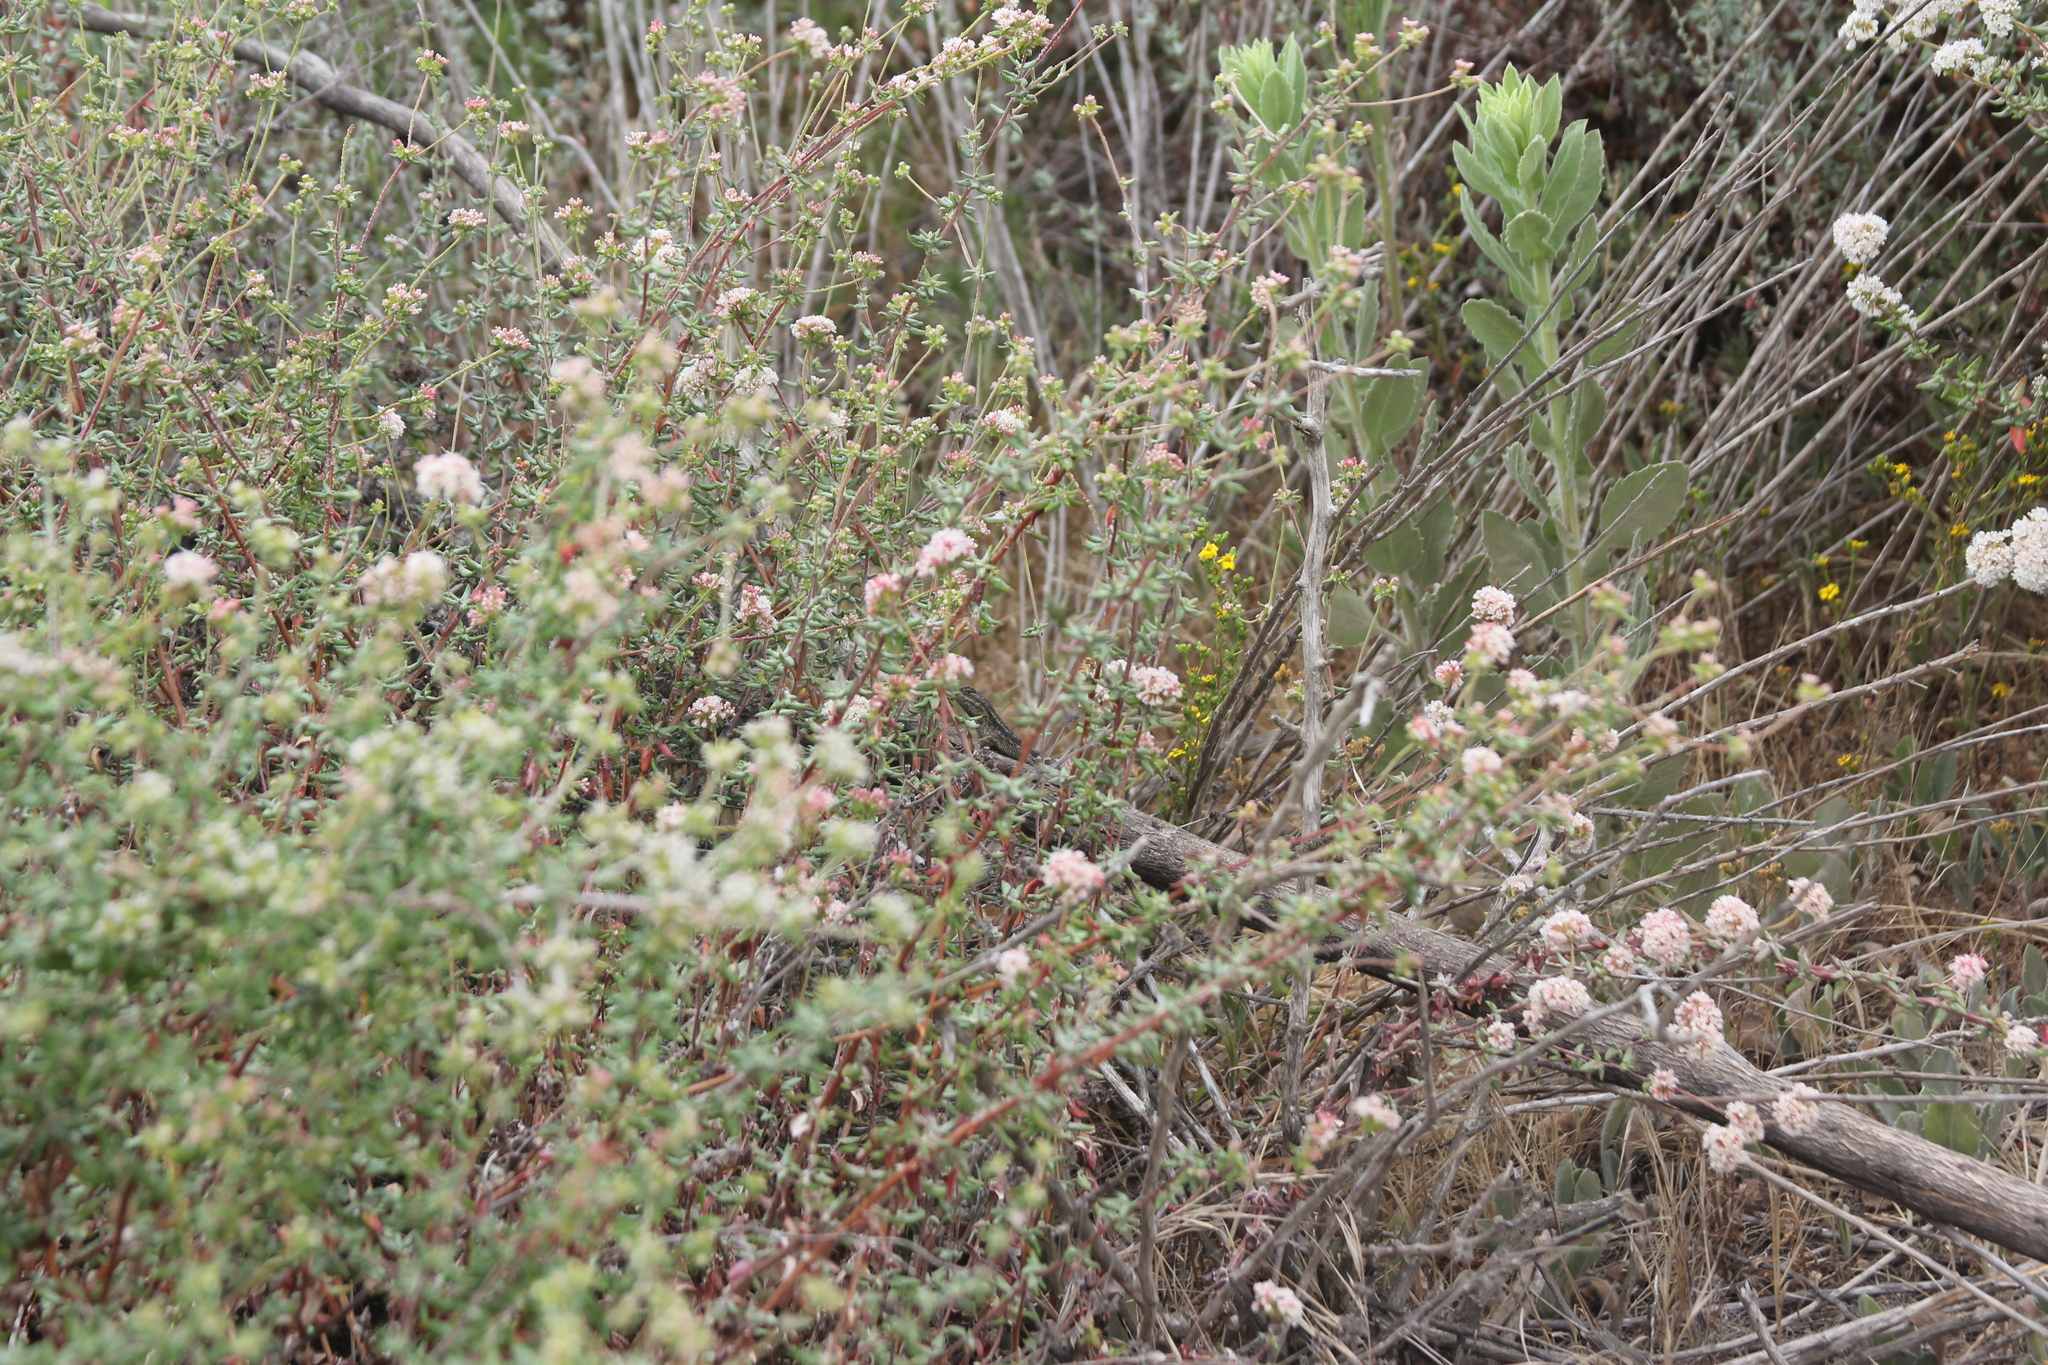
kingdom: Animalia
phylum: Chordata
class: Squamata
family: Phrynosomatidae
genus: Sceloporus
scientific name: Sceloporus occidentalis
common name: Western fence lizard
